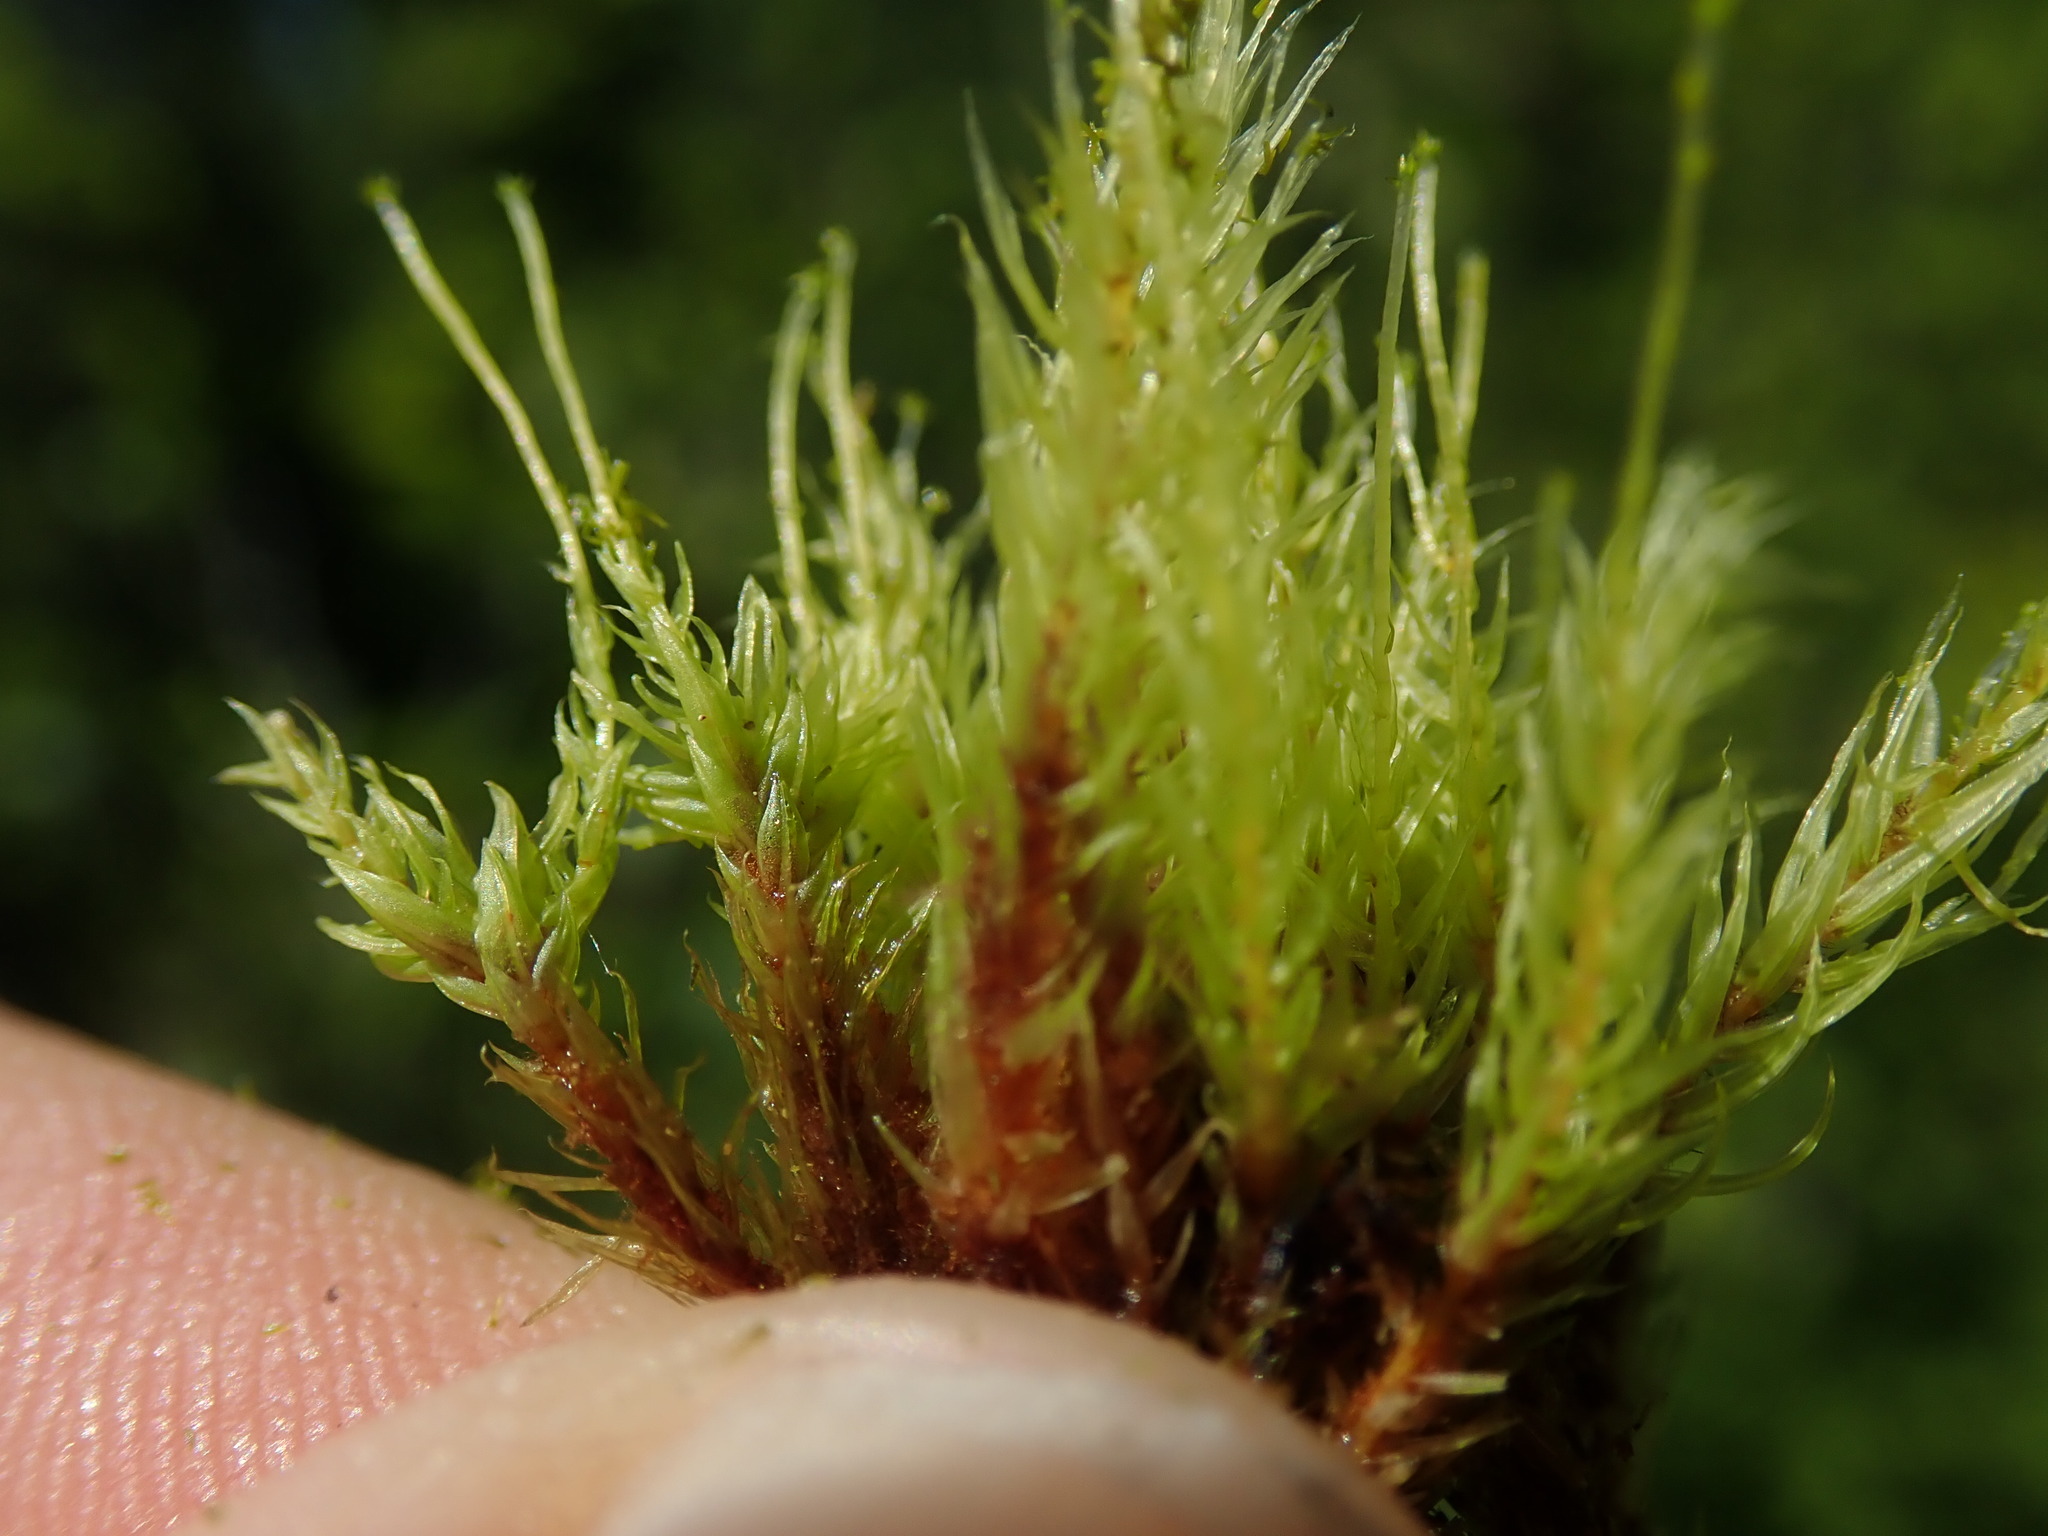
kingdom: Plantae
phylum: Bryophyta
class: Bryopsida
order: Aulacomniales
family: Aulacomniaceae
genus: Aulacomnium
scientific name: Aulacomnium palustre
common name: Bog groove-moss
